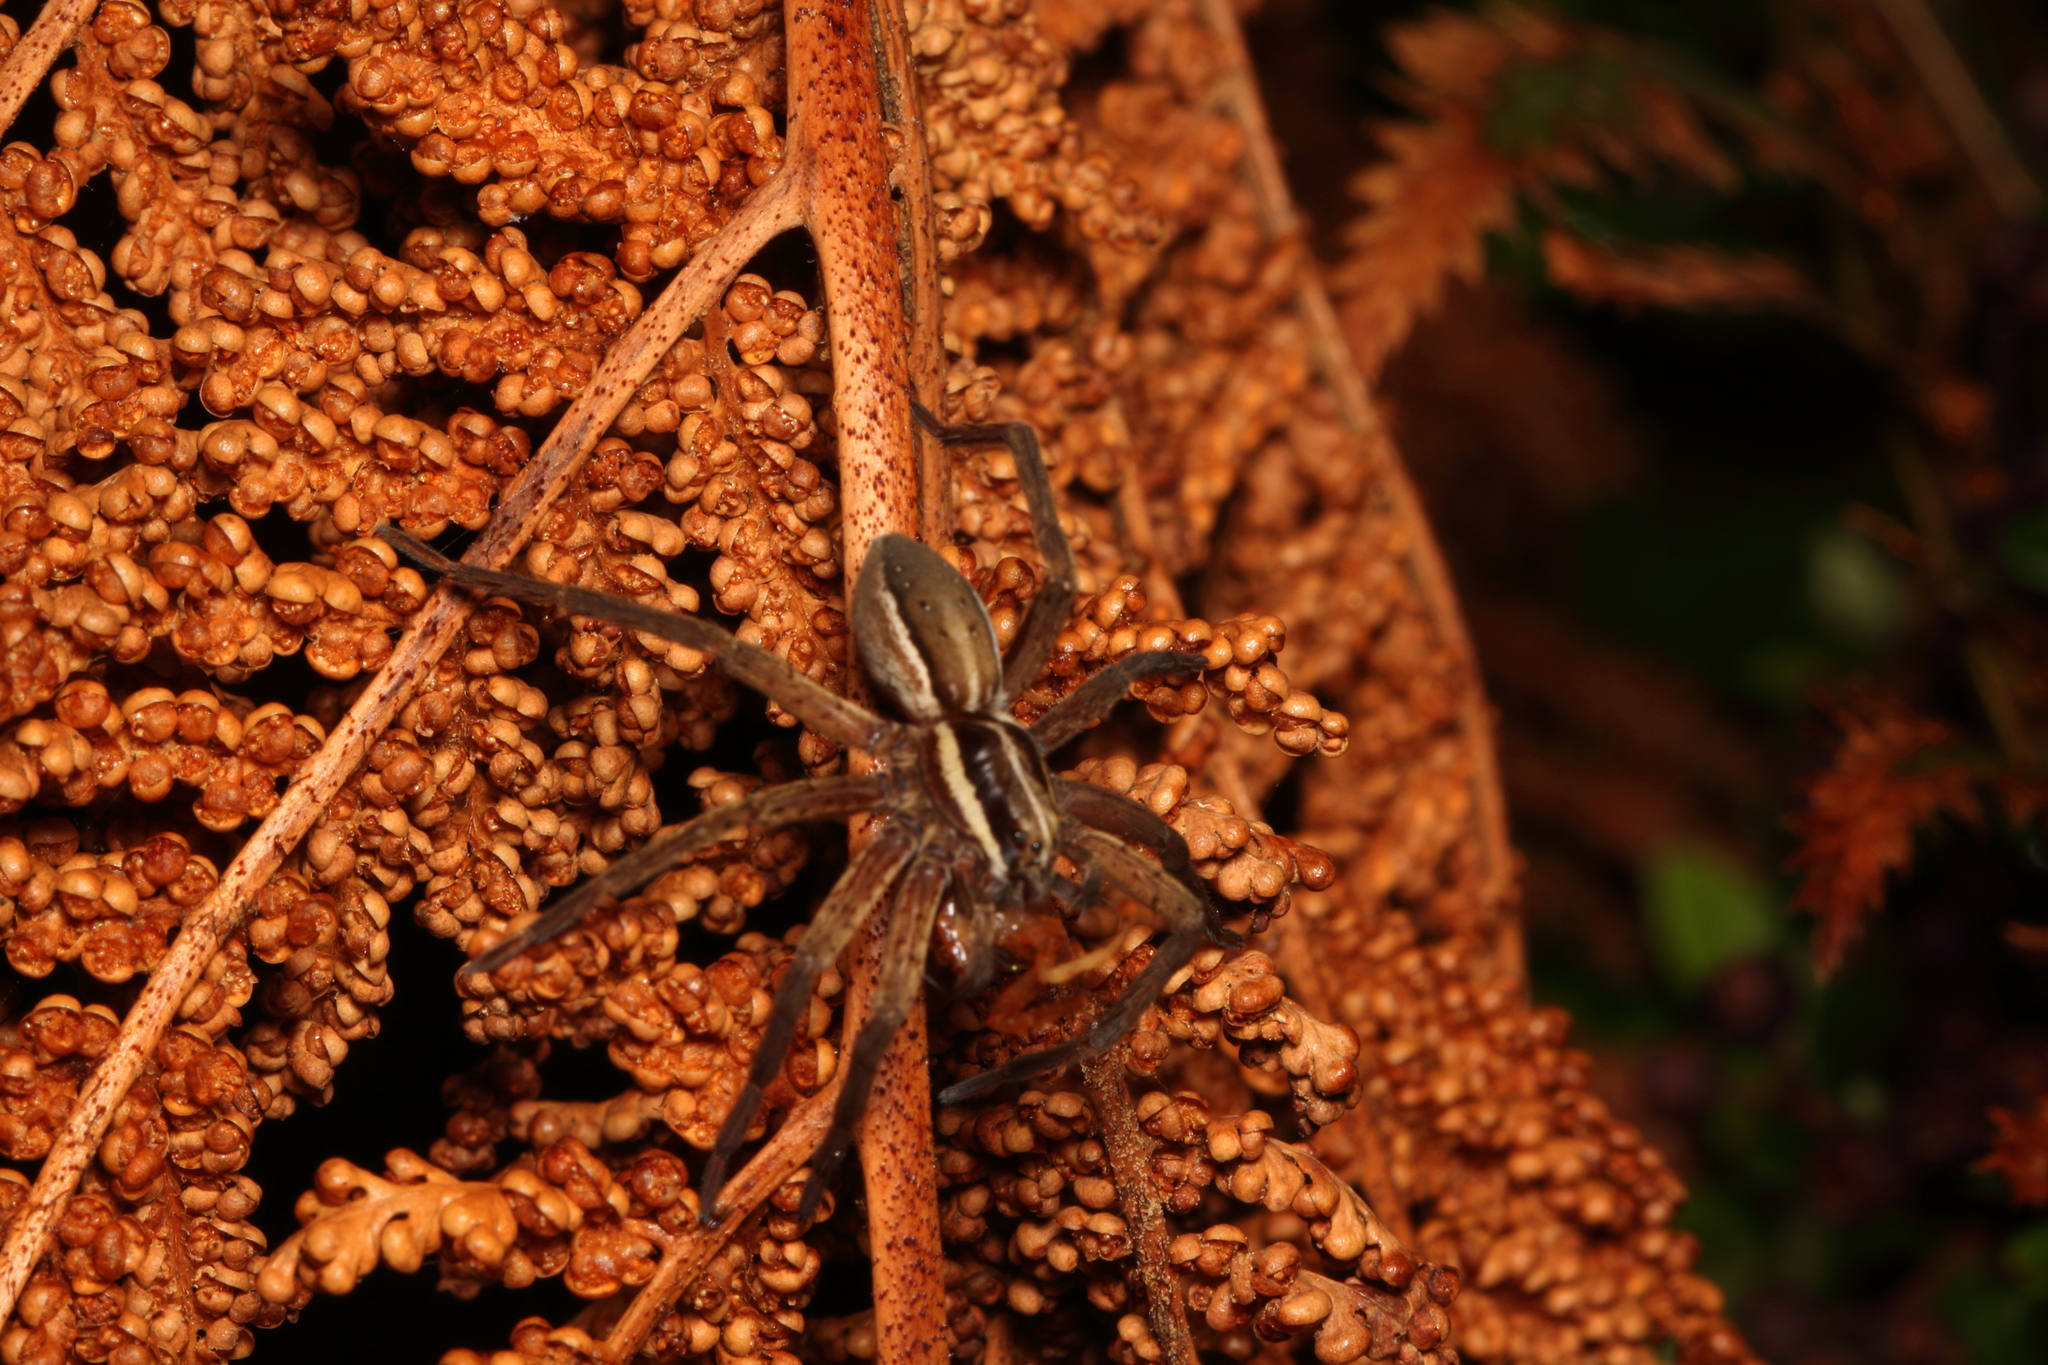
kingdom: Animalia
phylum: Arthropoda
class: Arachnida
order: Araneae
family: Pisauridae
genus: Dolomedes
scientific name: Dolomedes minor
